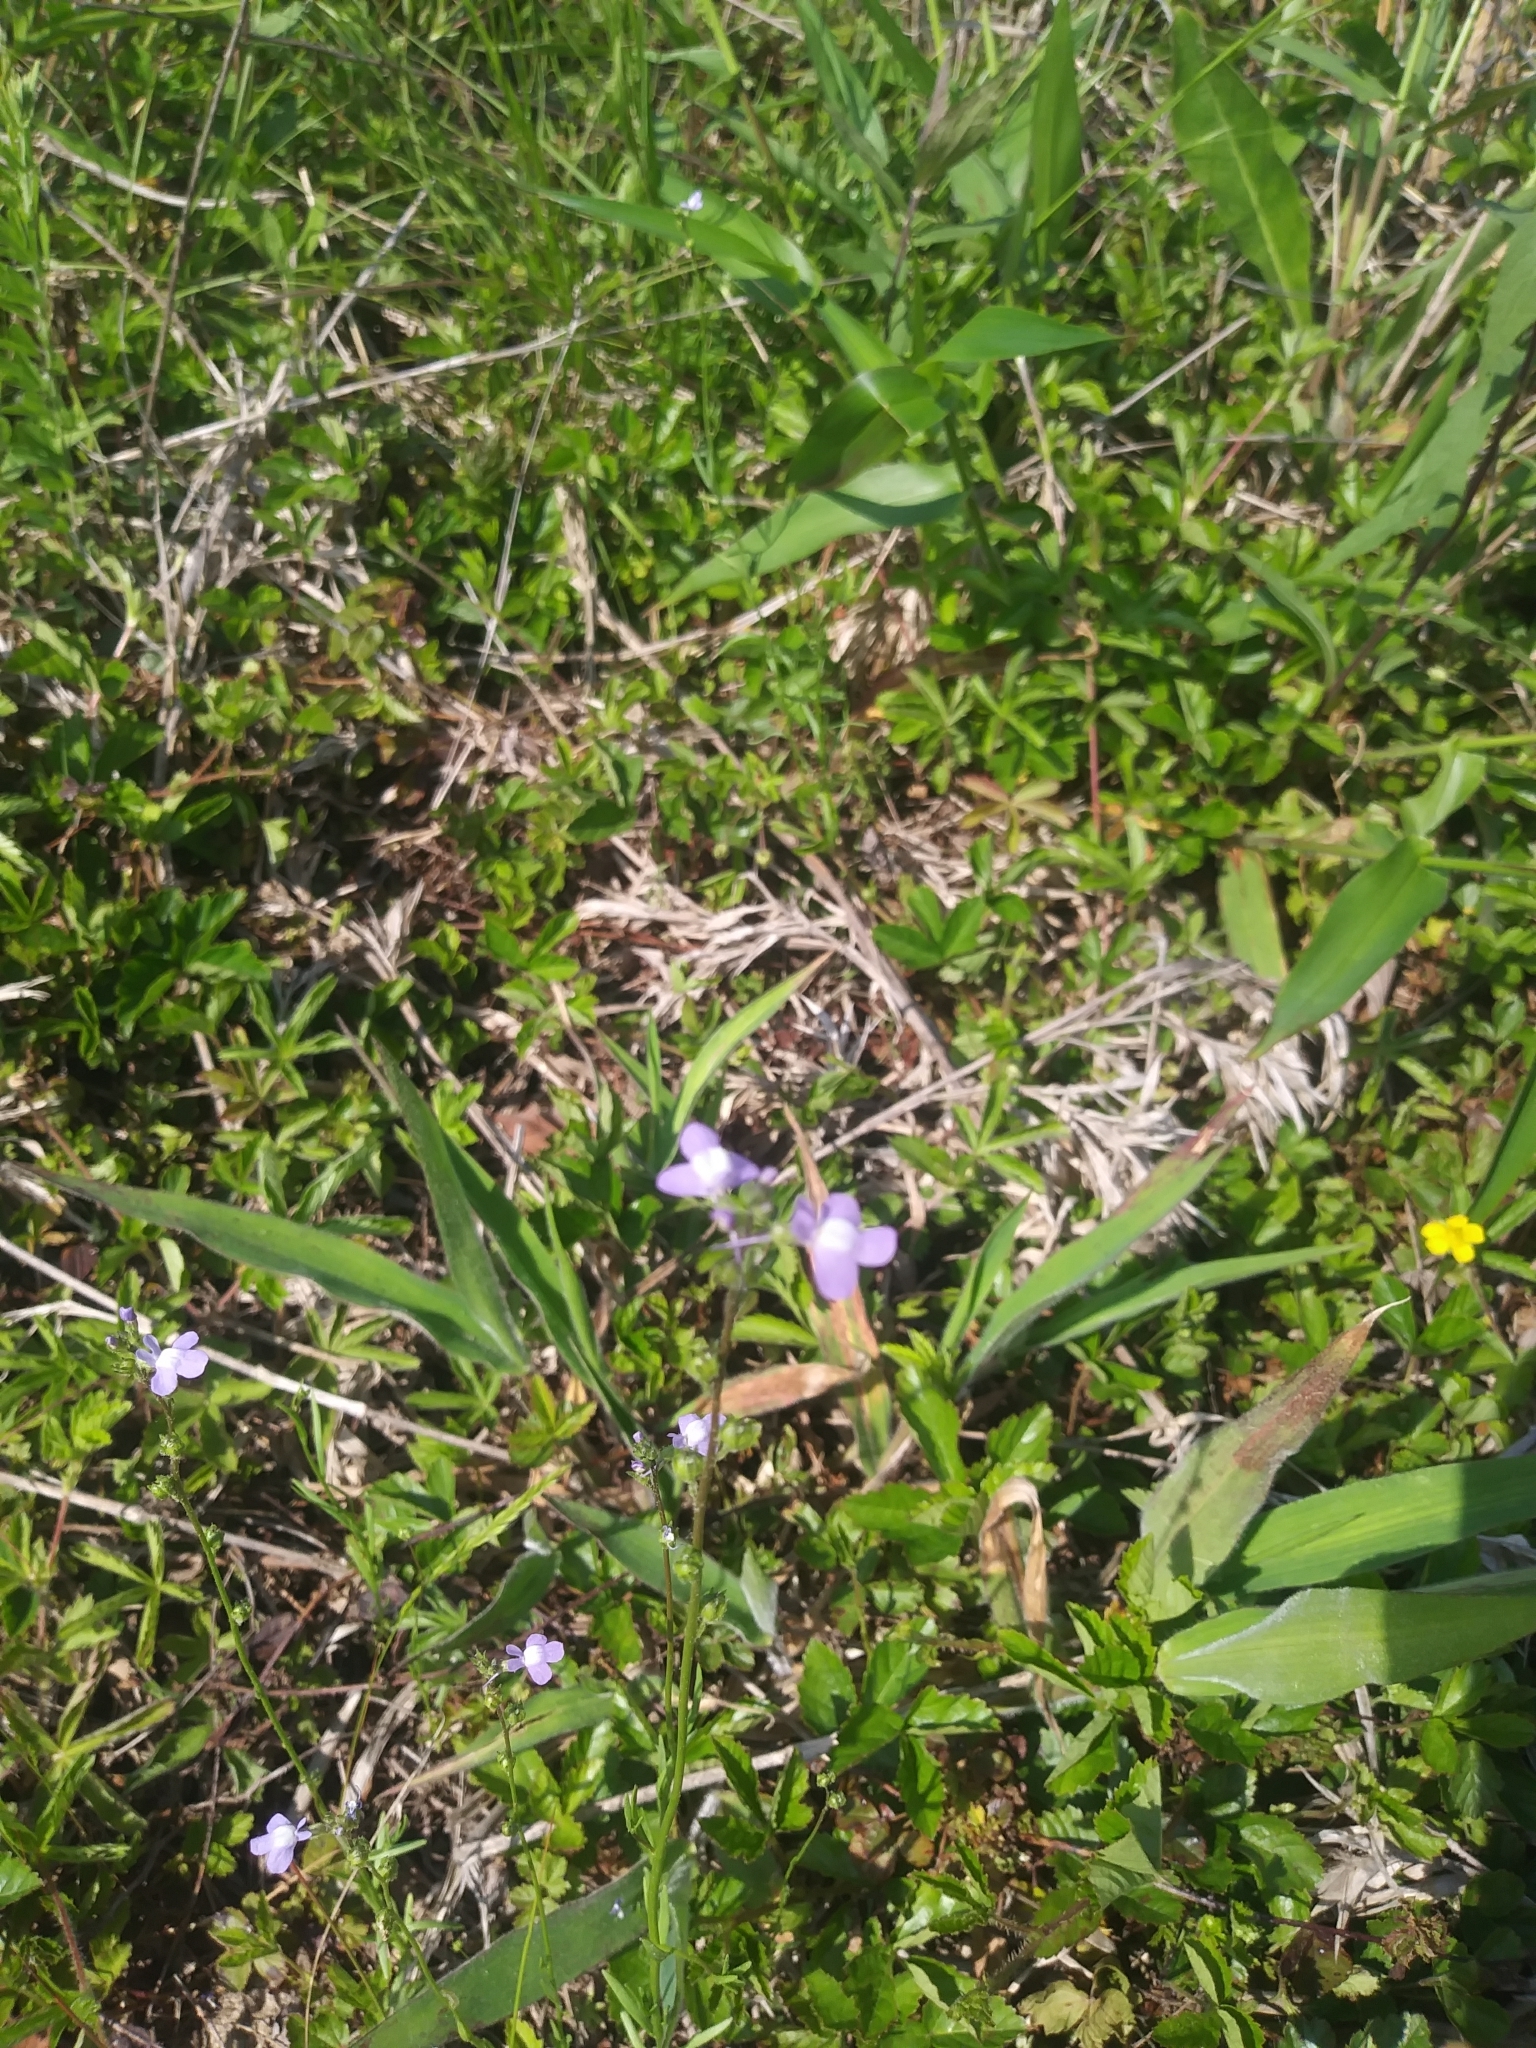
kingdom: Plantae
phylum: Tracheophyta
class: Magnoliopsida
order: Lamiales
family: Plantaginaceae
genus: Nuttallanthus
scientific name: Nuttallanthus canadensis
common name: Blue toadflax
